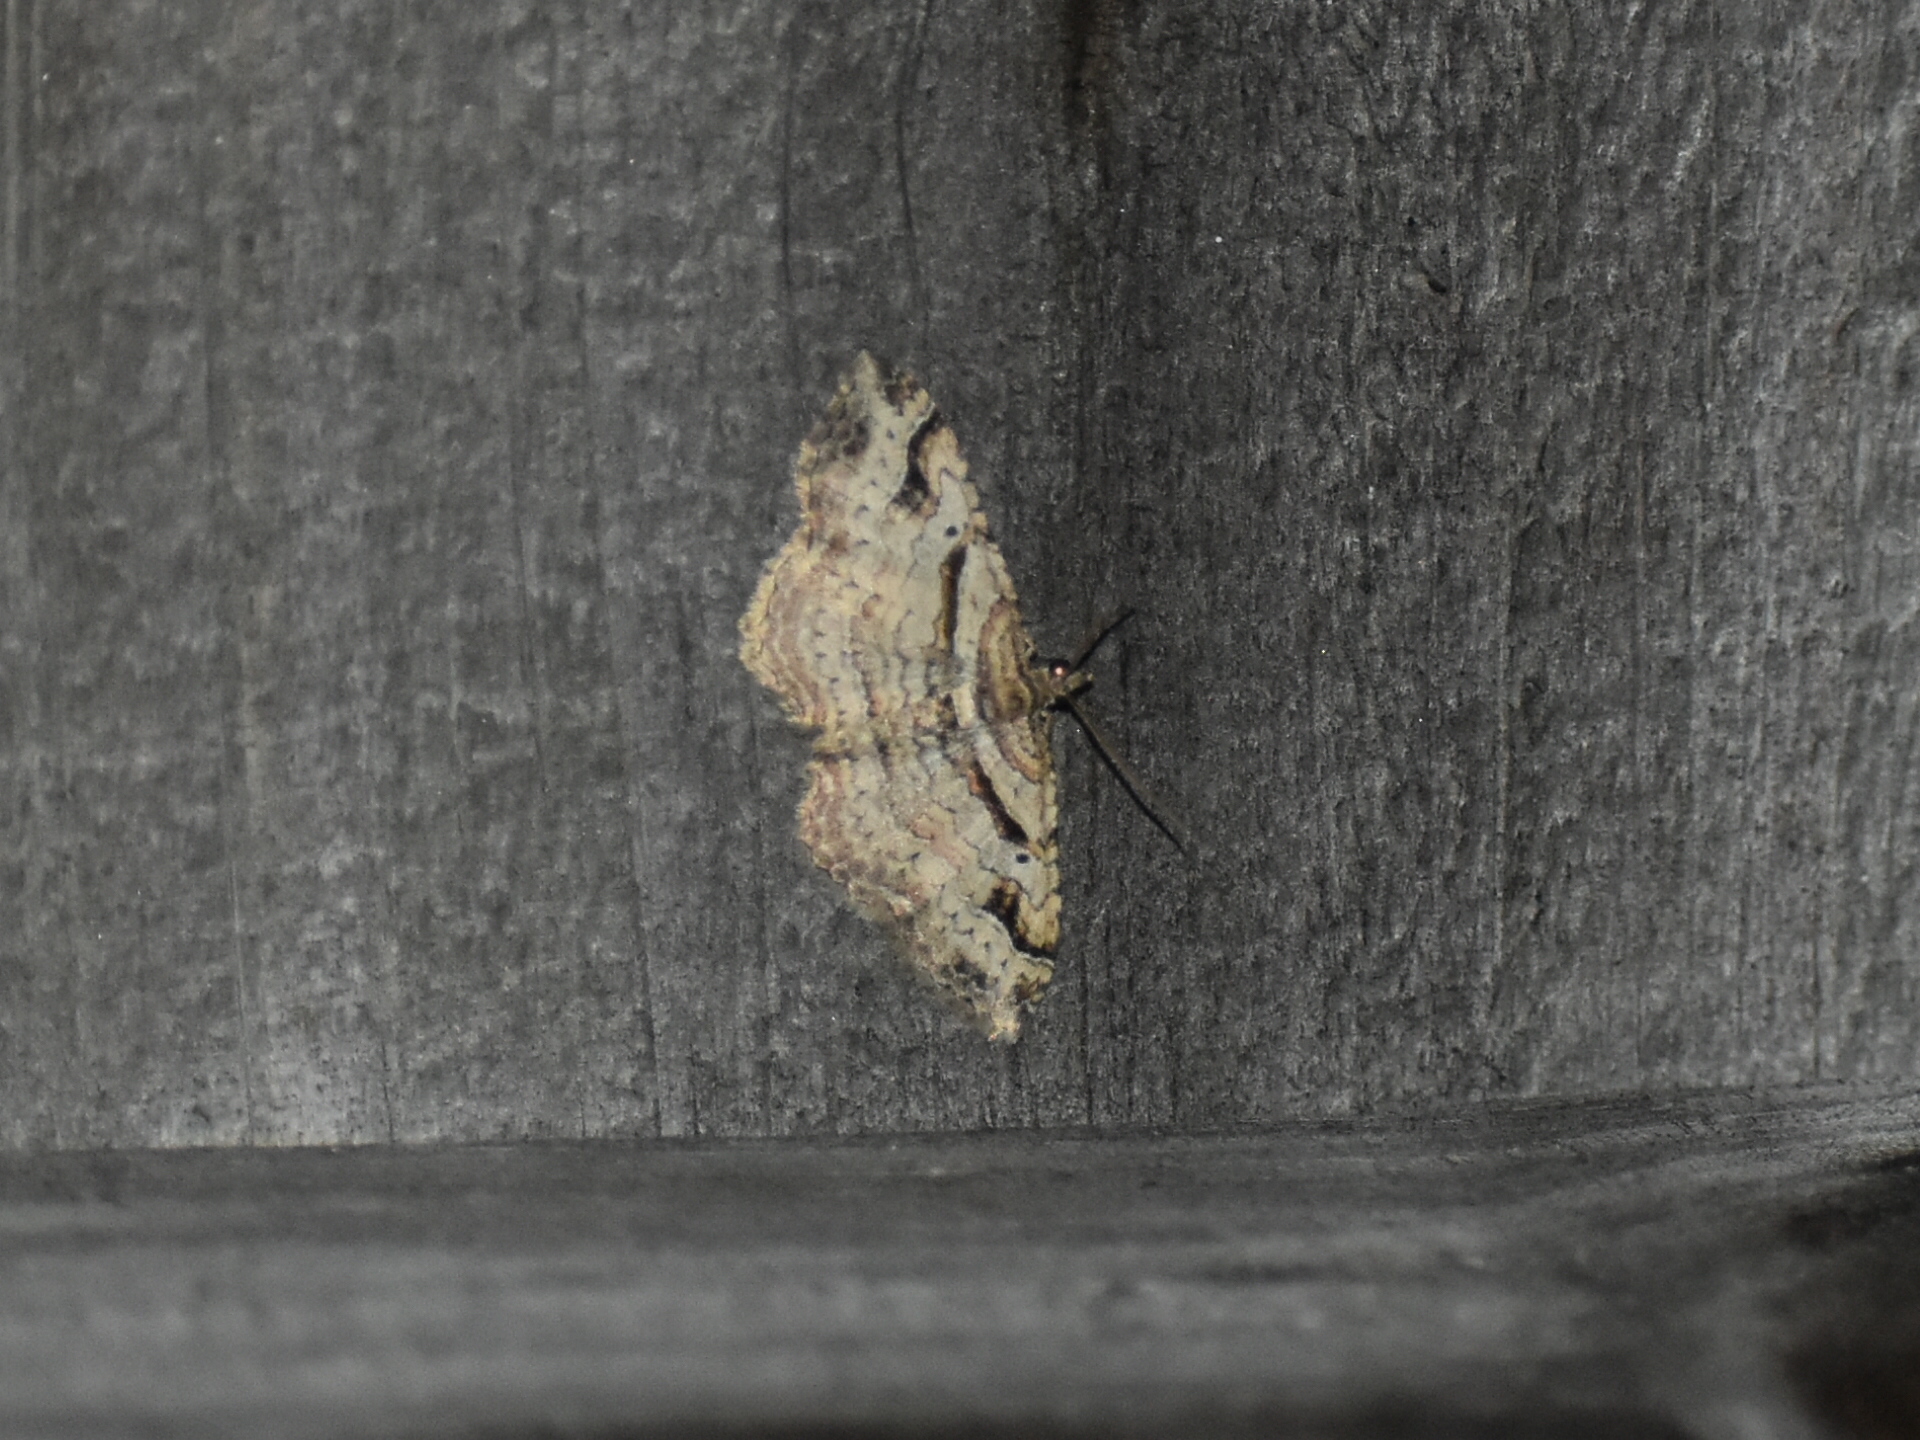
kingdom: Animalia
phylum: Arthropoda
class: Insecta
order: Lepidoptera
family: Geometridae
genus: Costaconvexa
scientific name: Costaconvexa centrostrigaria
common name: Bent-line carpet
